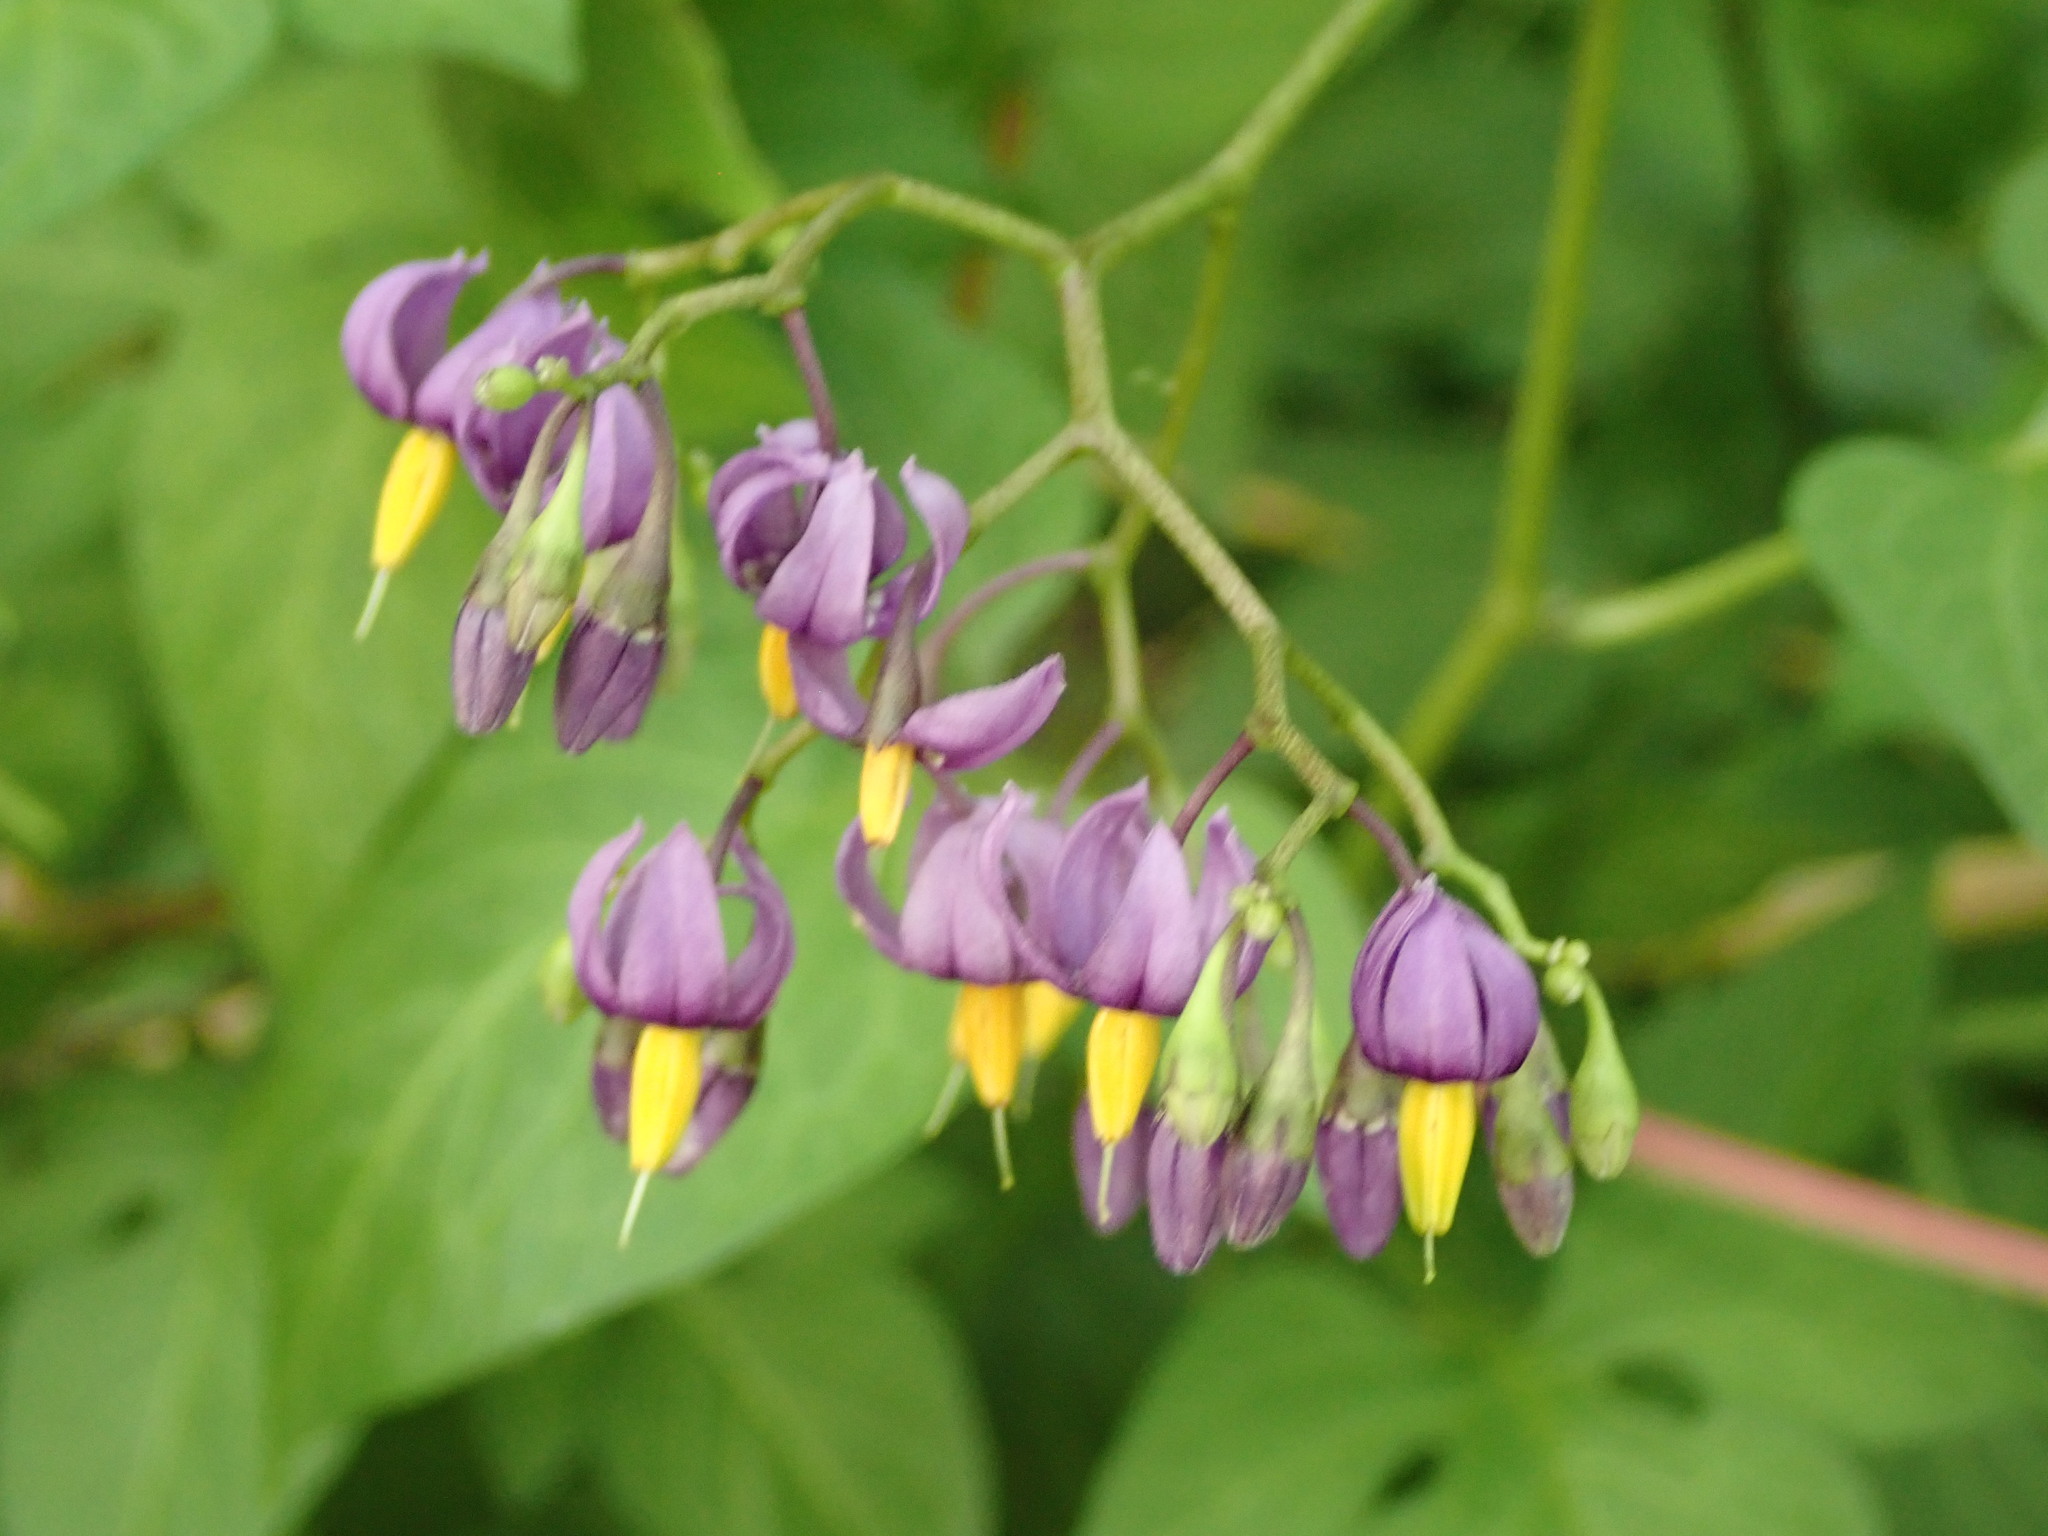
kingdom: Plantae
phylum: Tracheophyta
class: Magnoliopsida
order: Solanales
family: Solanaceae
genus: Solanum
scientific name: Solanum dulcamara
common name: Climbing nightshade
